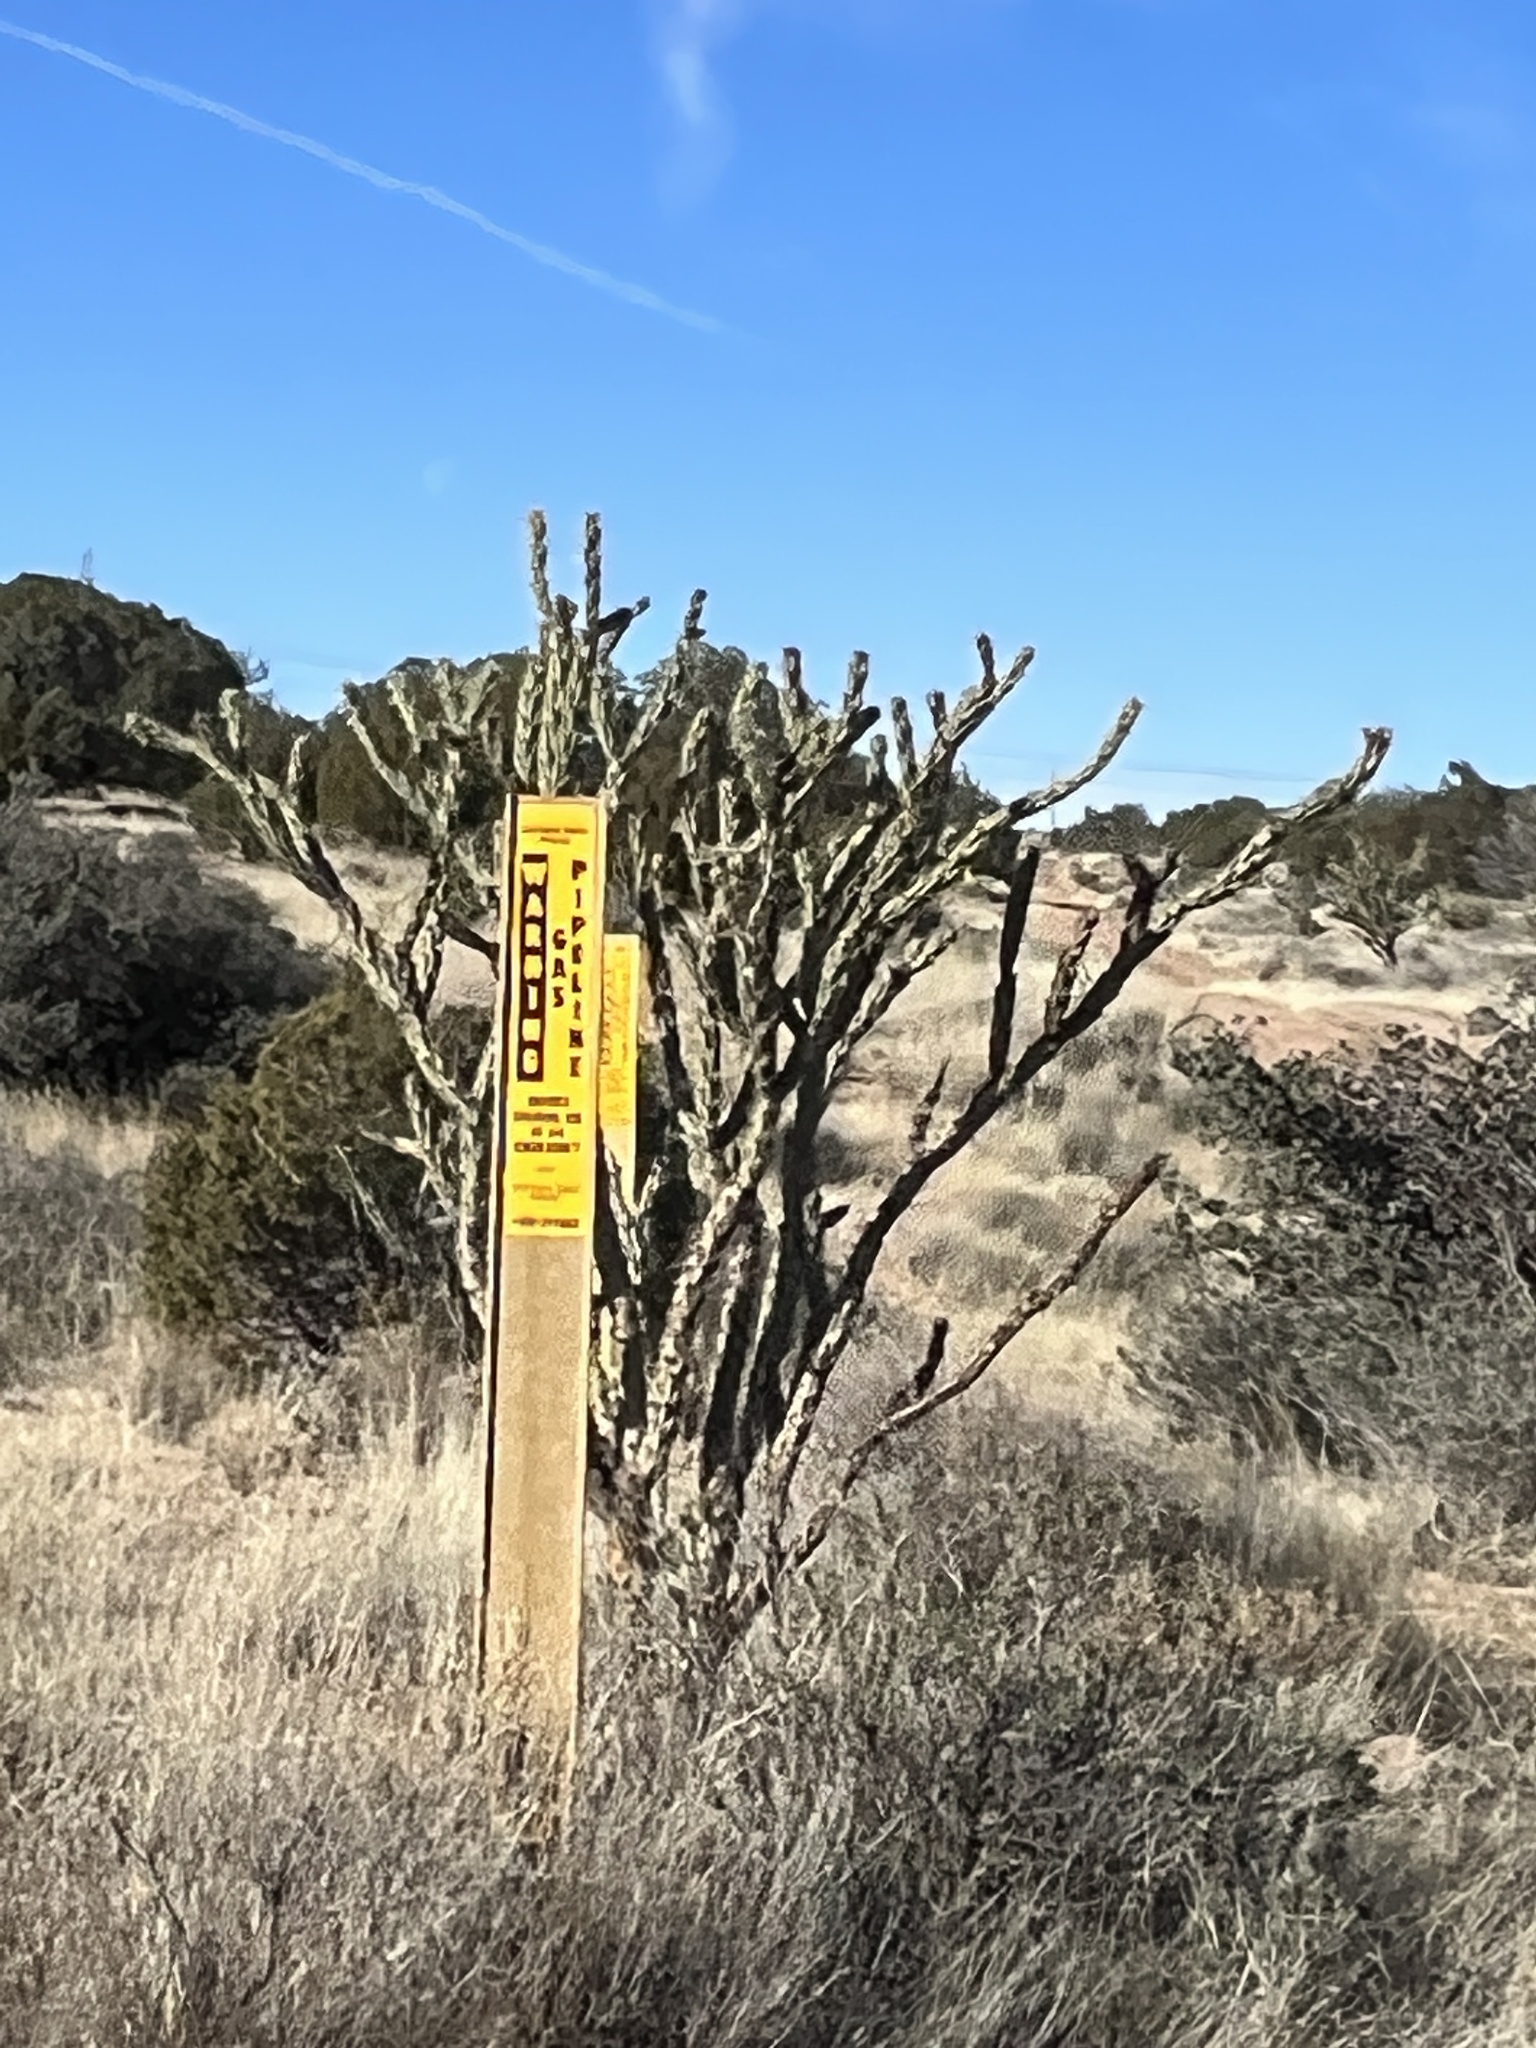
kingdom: Plantae
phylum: Tracheophyta
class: Magnoliopsida
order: Caryophyllales
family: Cactaceae
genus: Cylindropuntia
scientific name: Cylindropuntia acanthocarpa
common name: Buckhorn cholla
